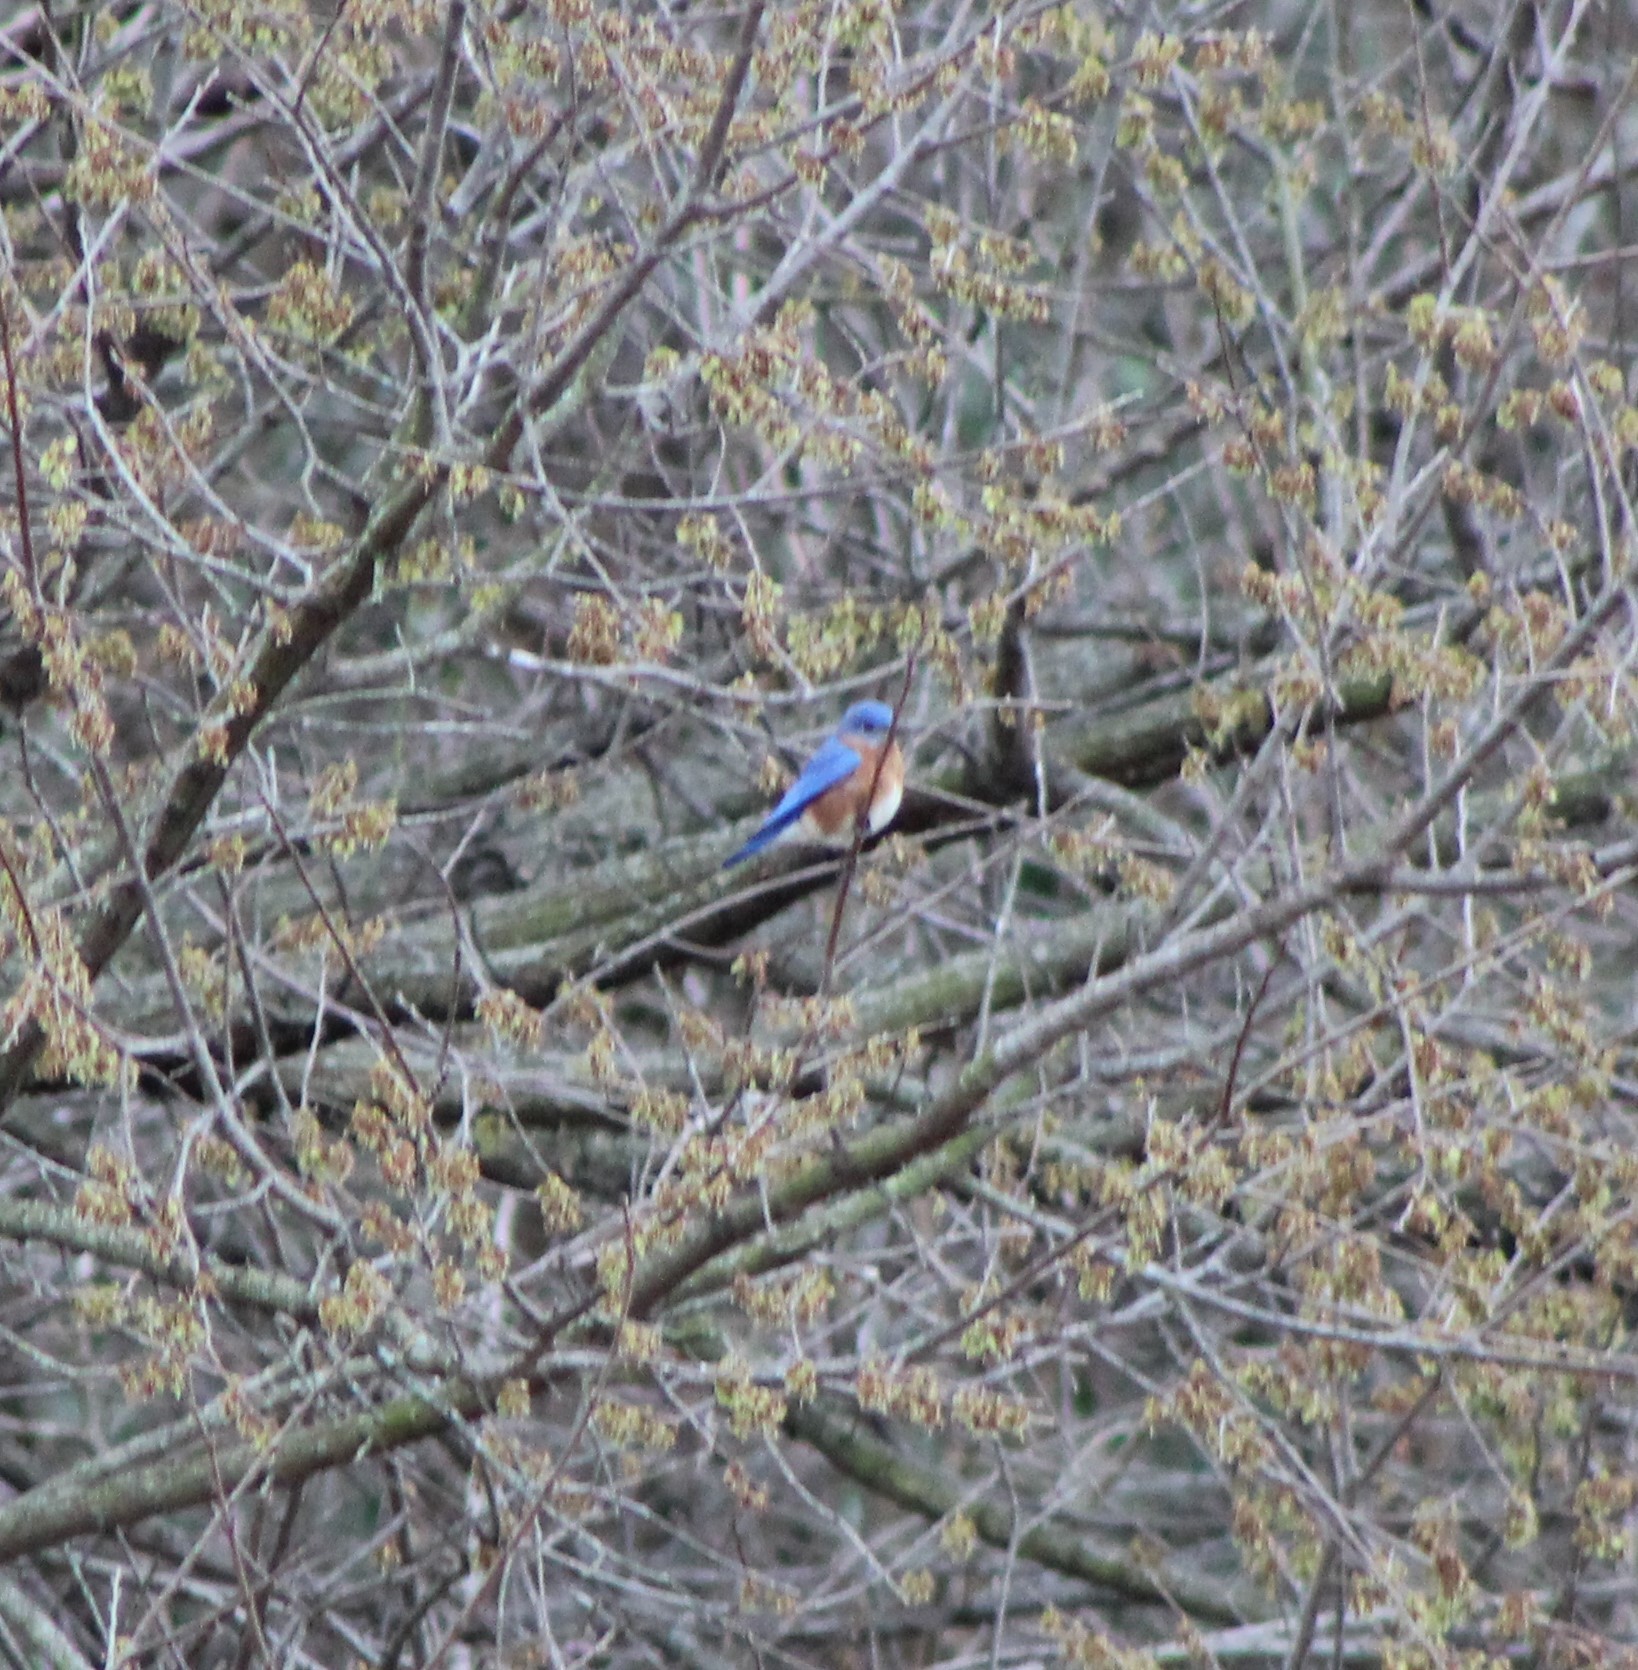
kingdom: Animalia
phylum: Chordata
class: Aves
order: Passeriformes
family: Turdidae
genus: Sialia
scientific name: Sialia sialis
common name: Eastern bluebird
